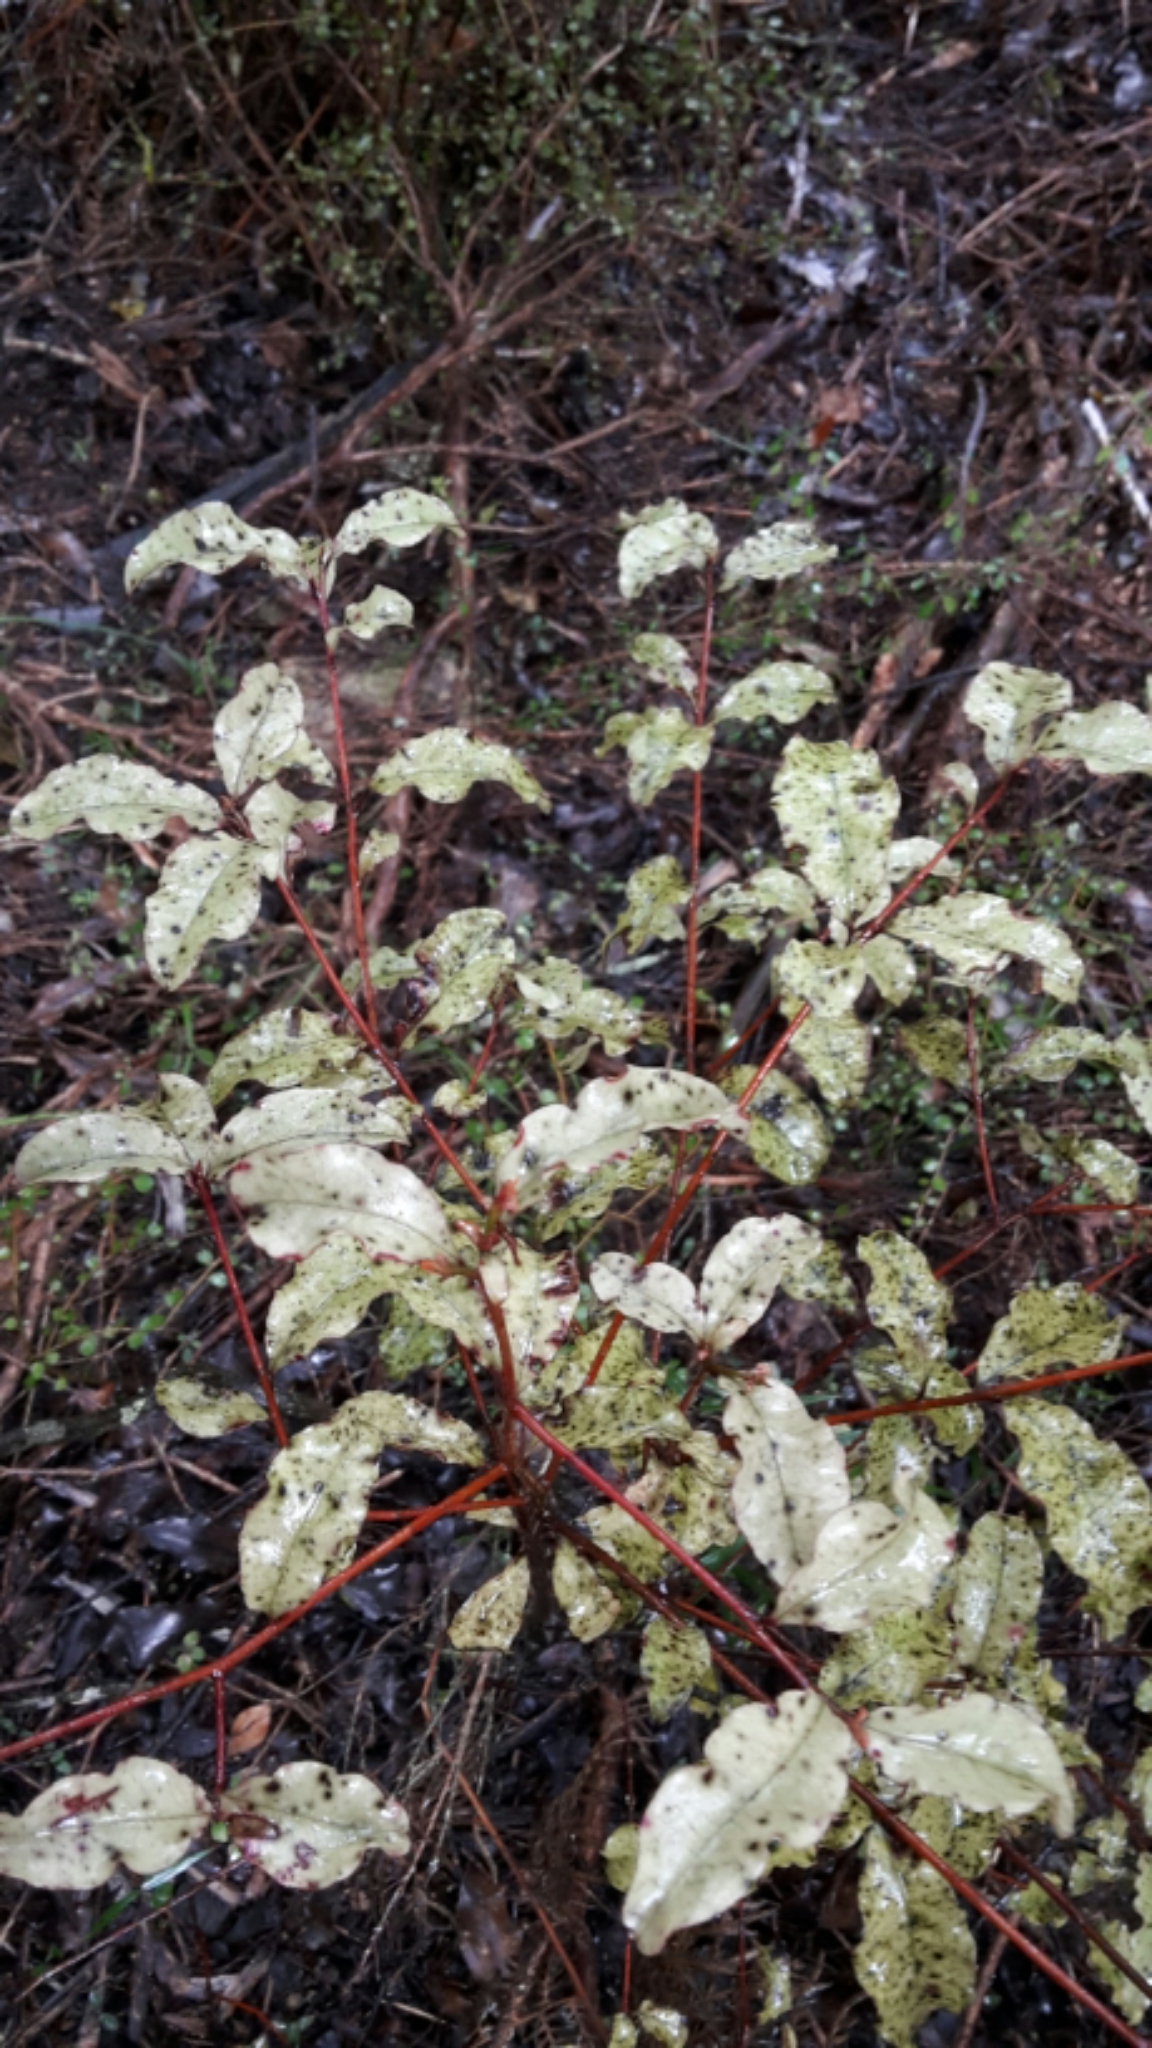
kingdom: Plantae
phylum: Tracheophyta
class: Magnoliopsida
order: Ericales
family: Primulaceae
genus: Myrsine
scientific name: Myrsine australis
